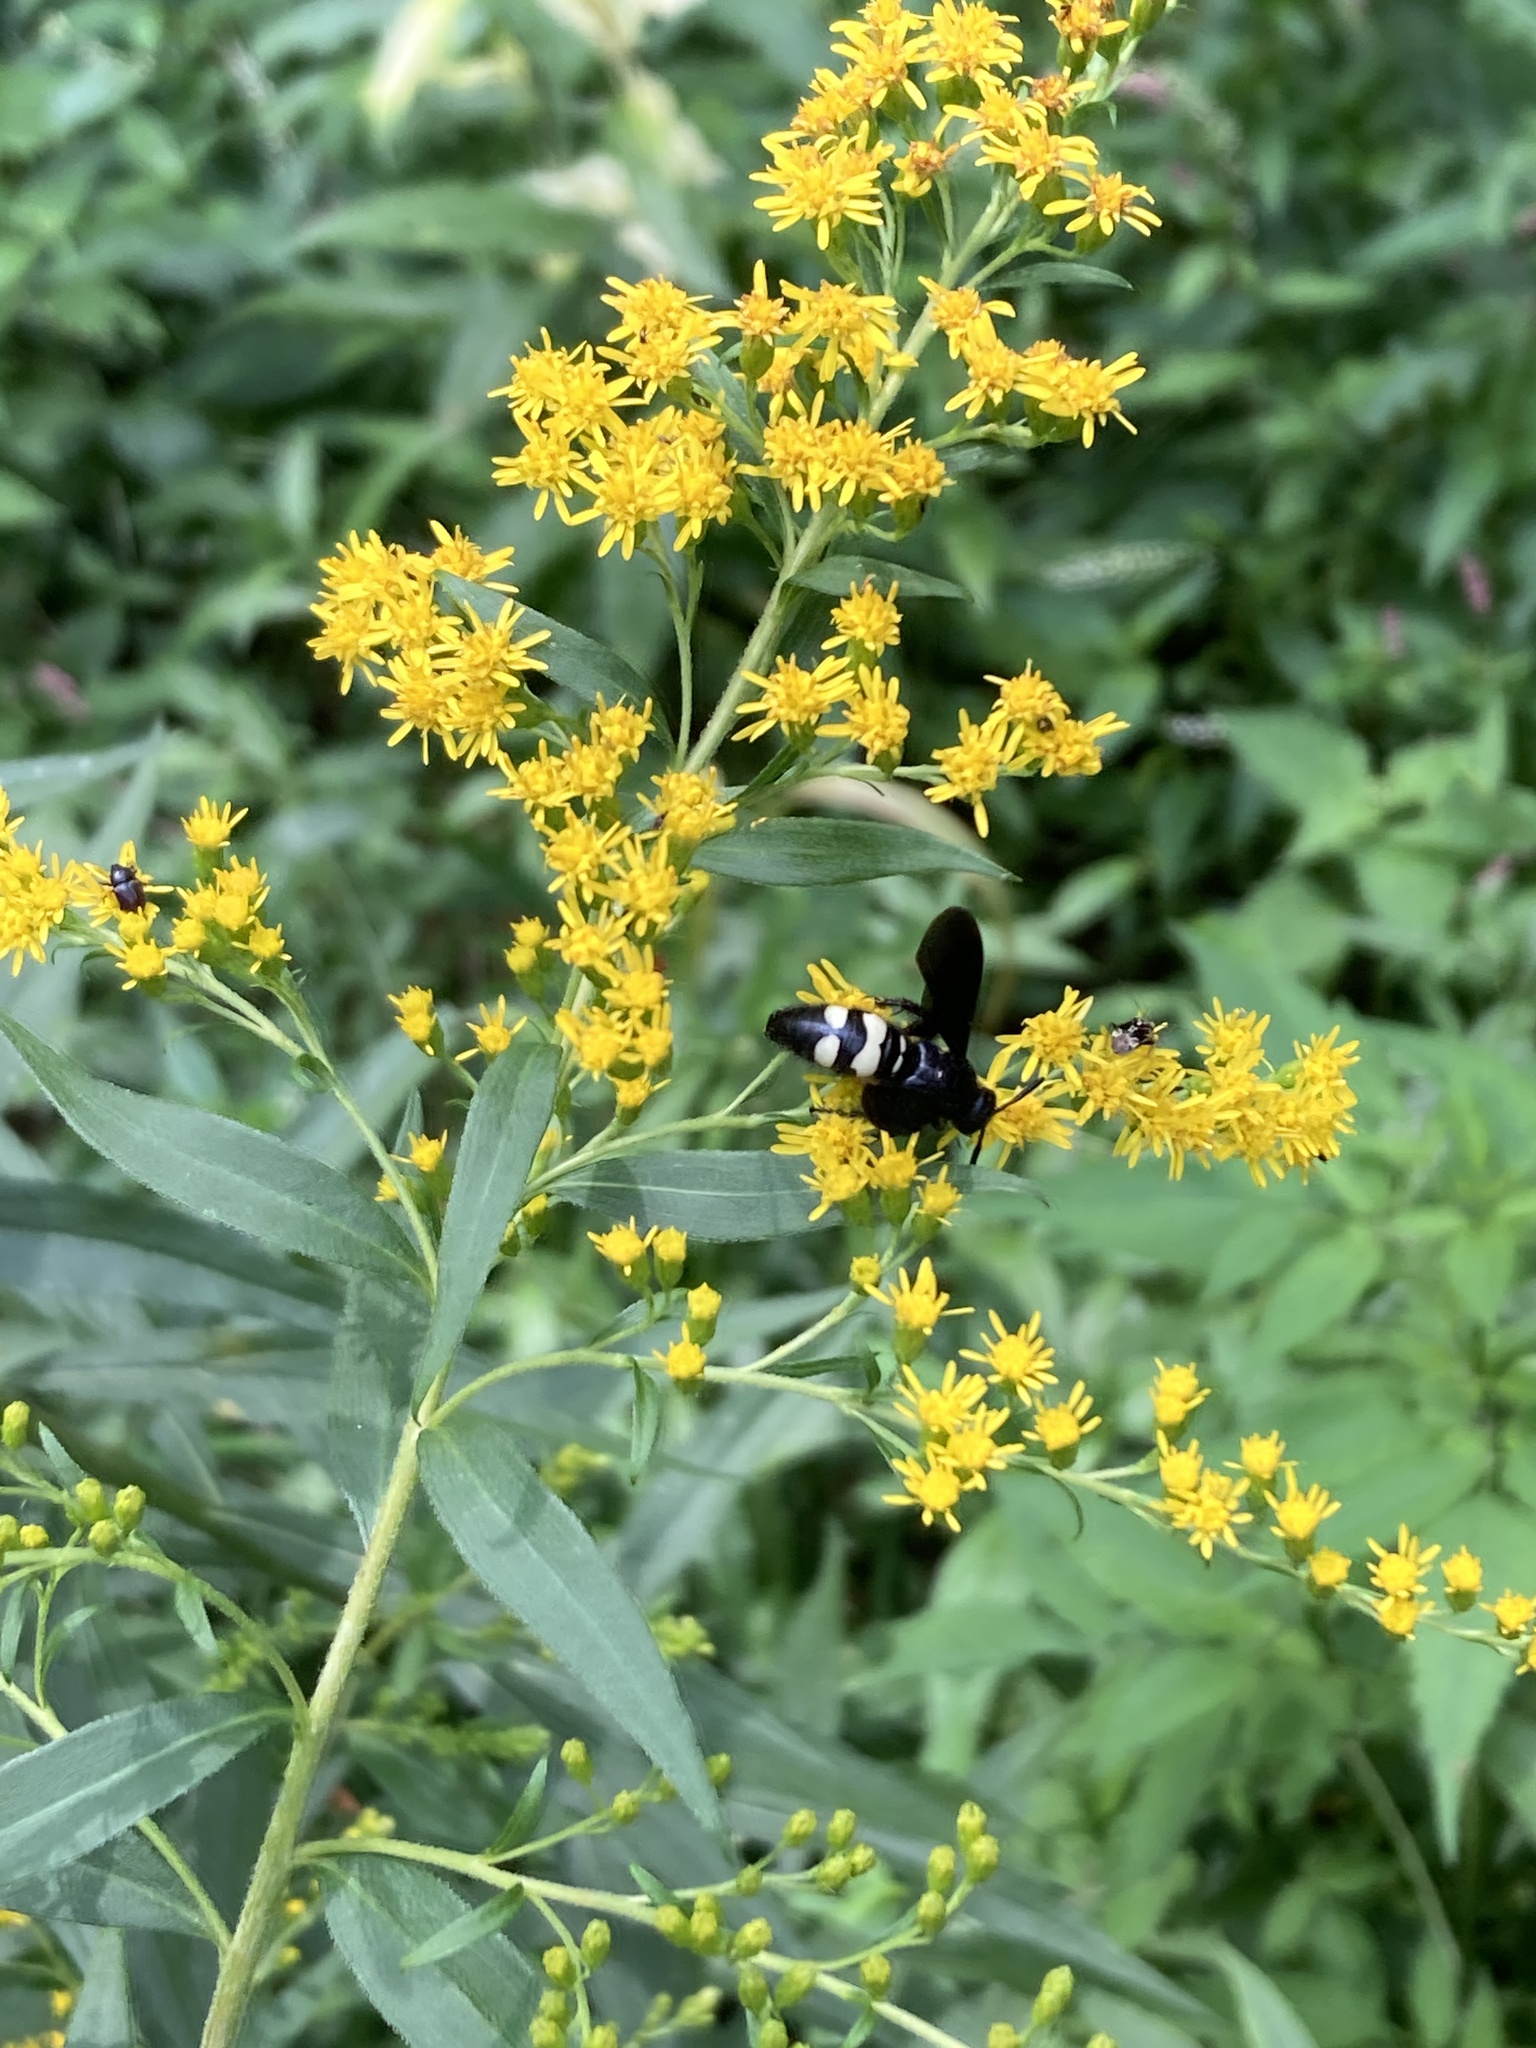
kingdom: Animalia
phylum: Arthropoda
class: Insecta
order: Hymenoptera
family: Scoliidae
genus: Scolia
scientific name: Scolia bicincta
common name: Double-banded scoliid wasp
